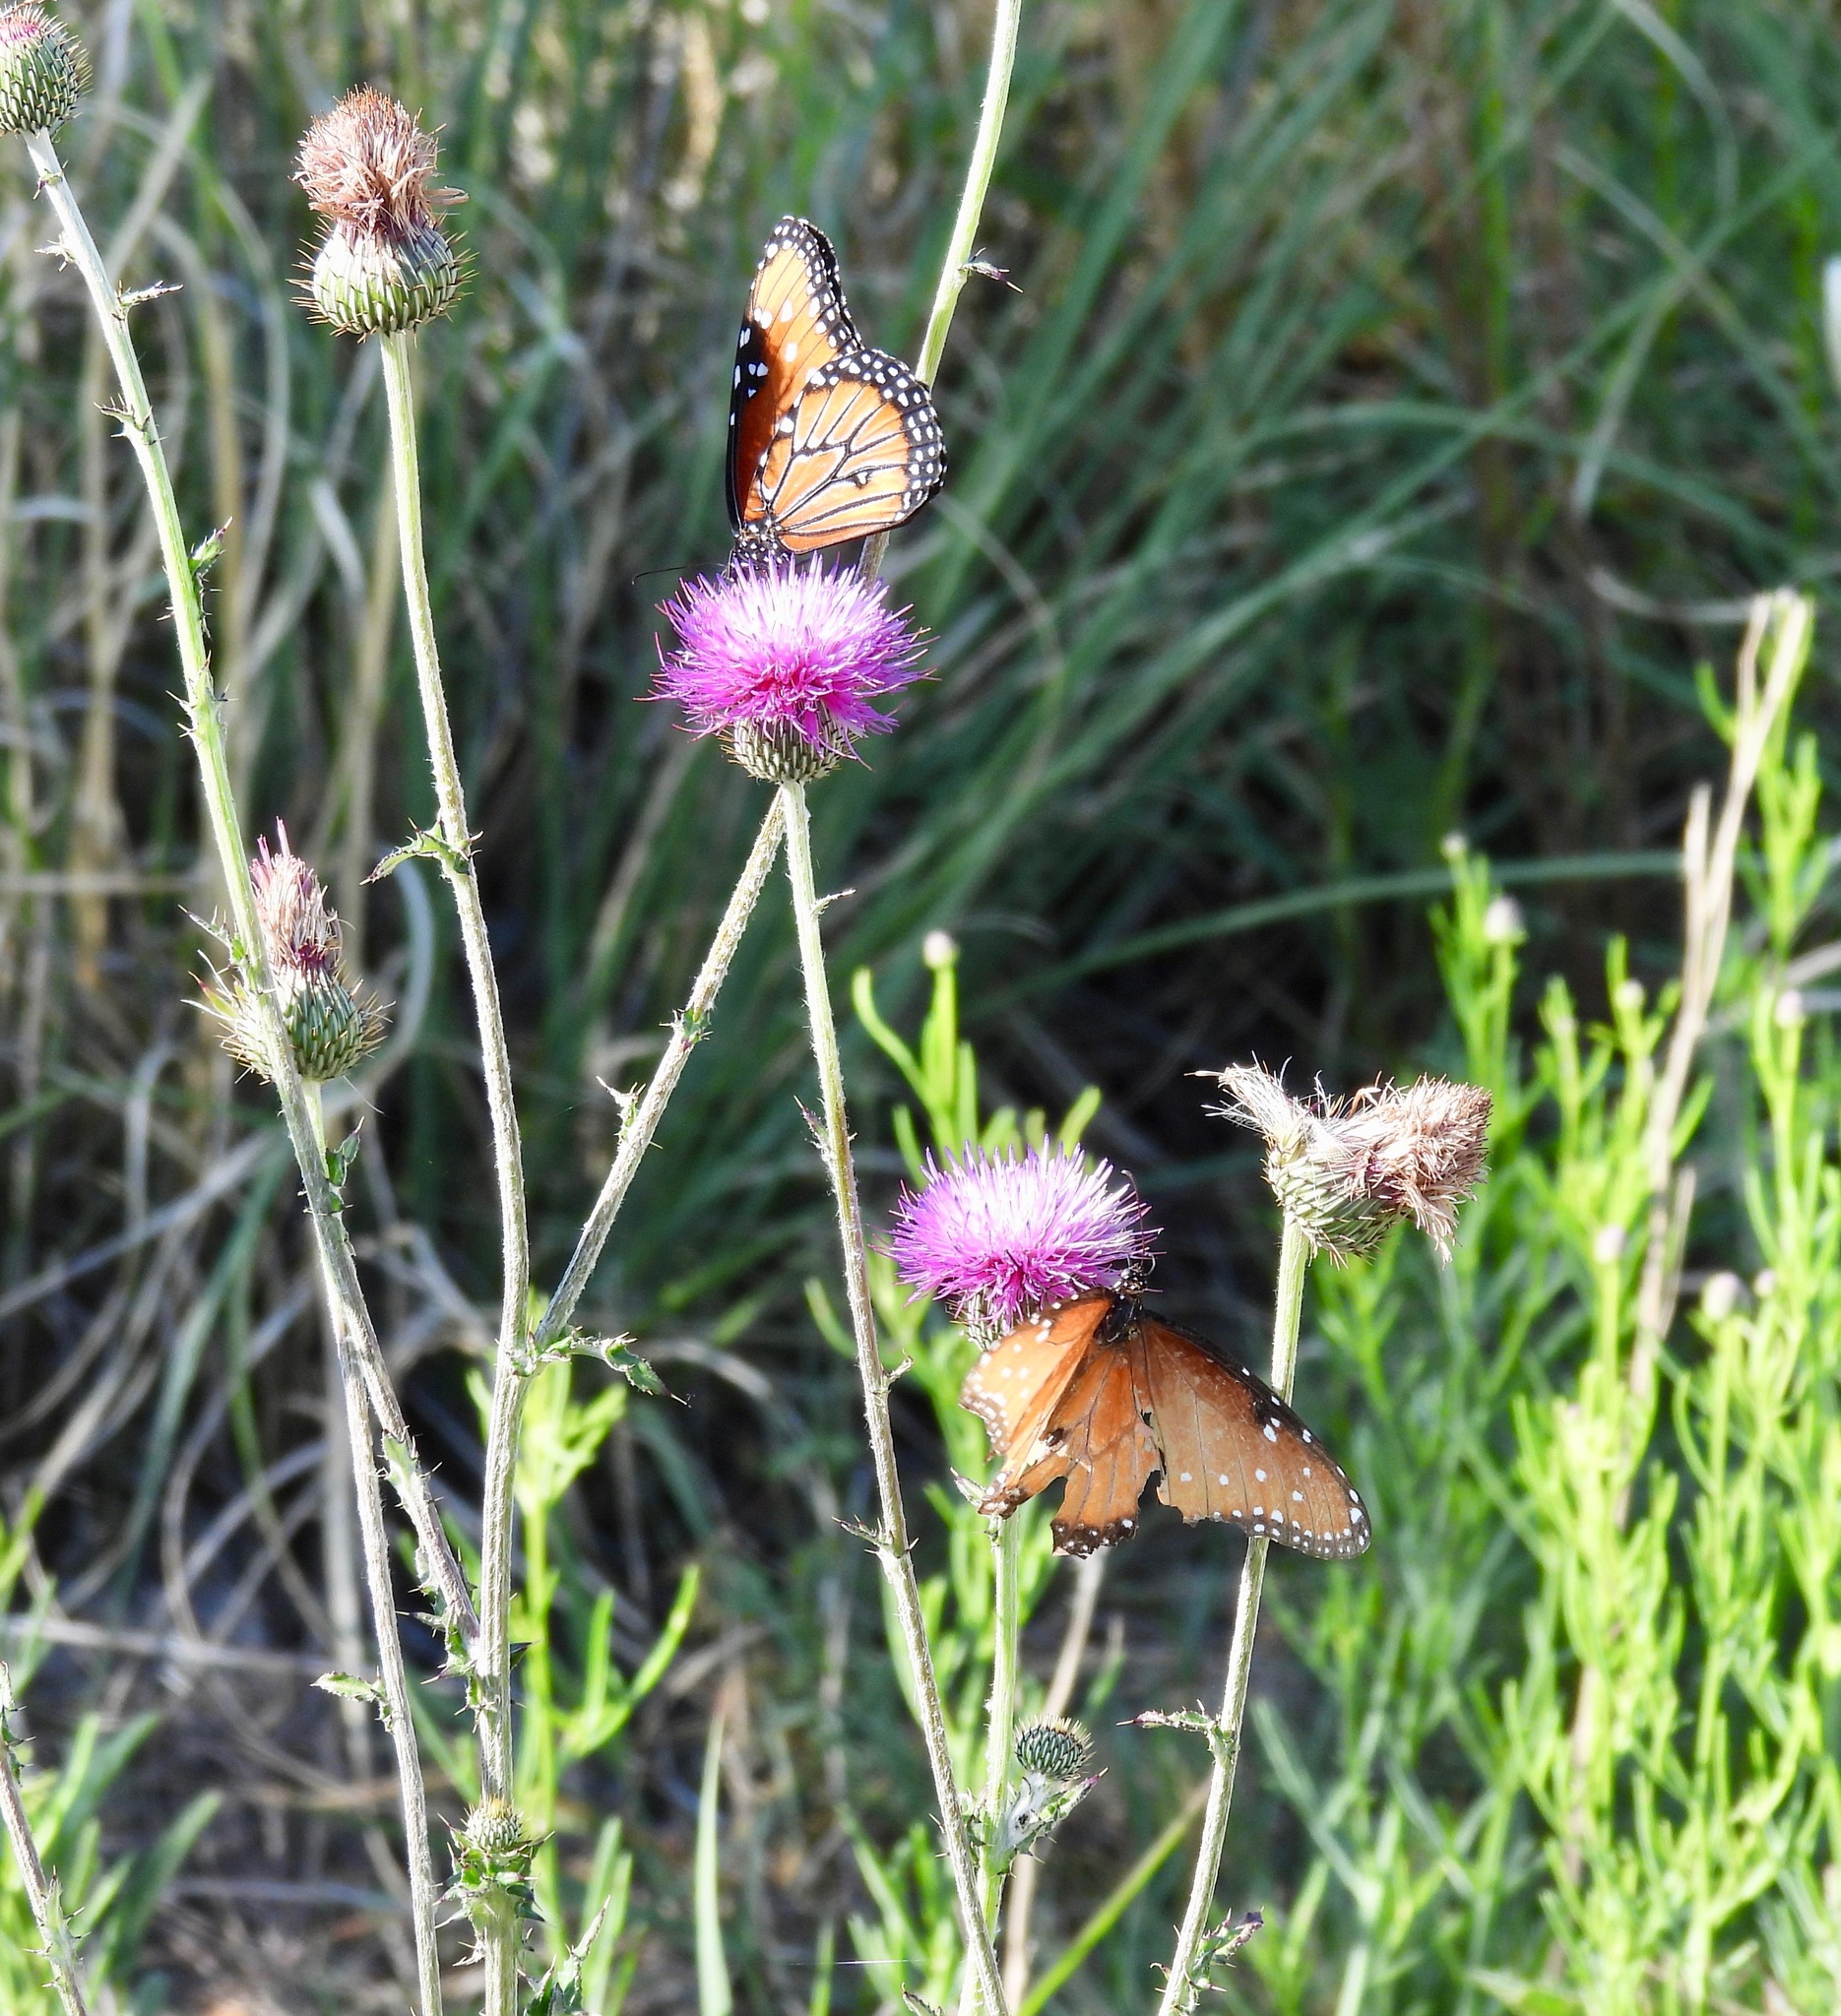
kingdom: Animalia
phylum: Arthropoda
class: Insecta
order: Lepidoptera
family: Nymphalidae
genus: Danaus
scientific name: Danaus gilippus
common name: Queen
